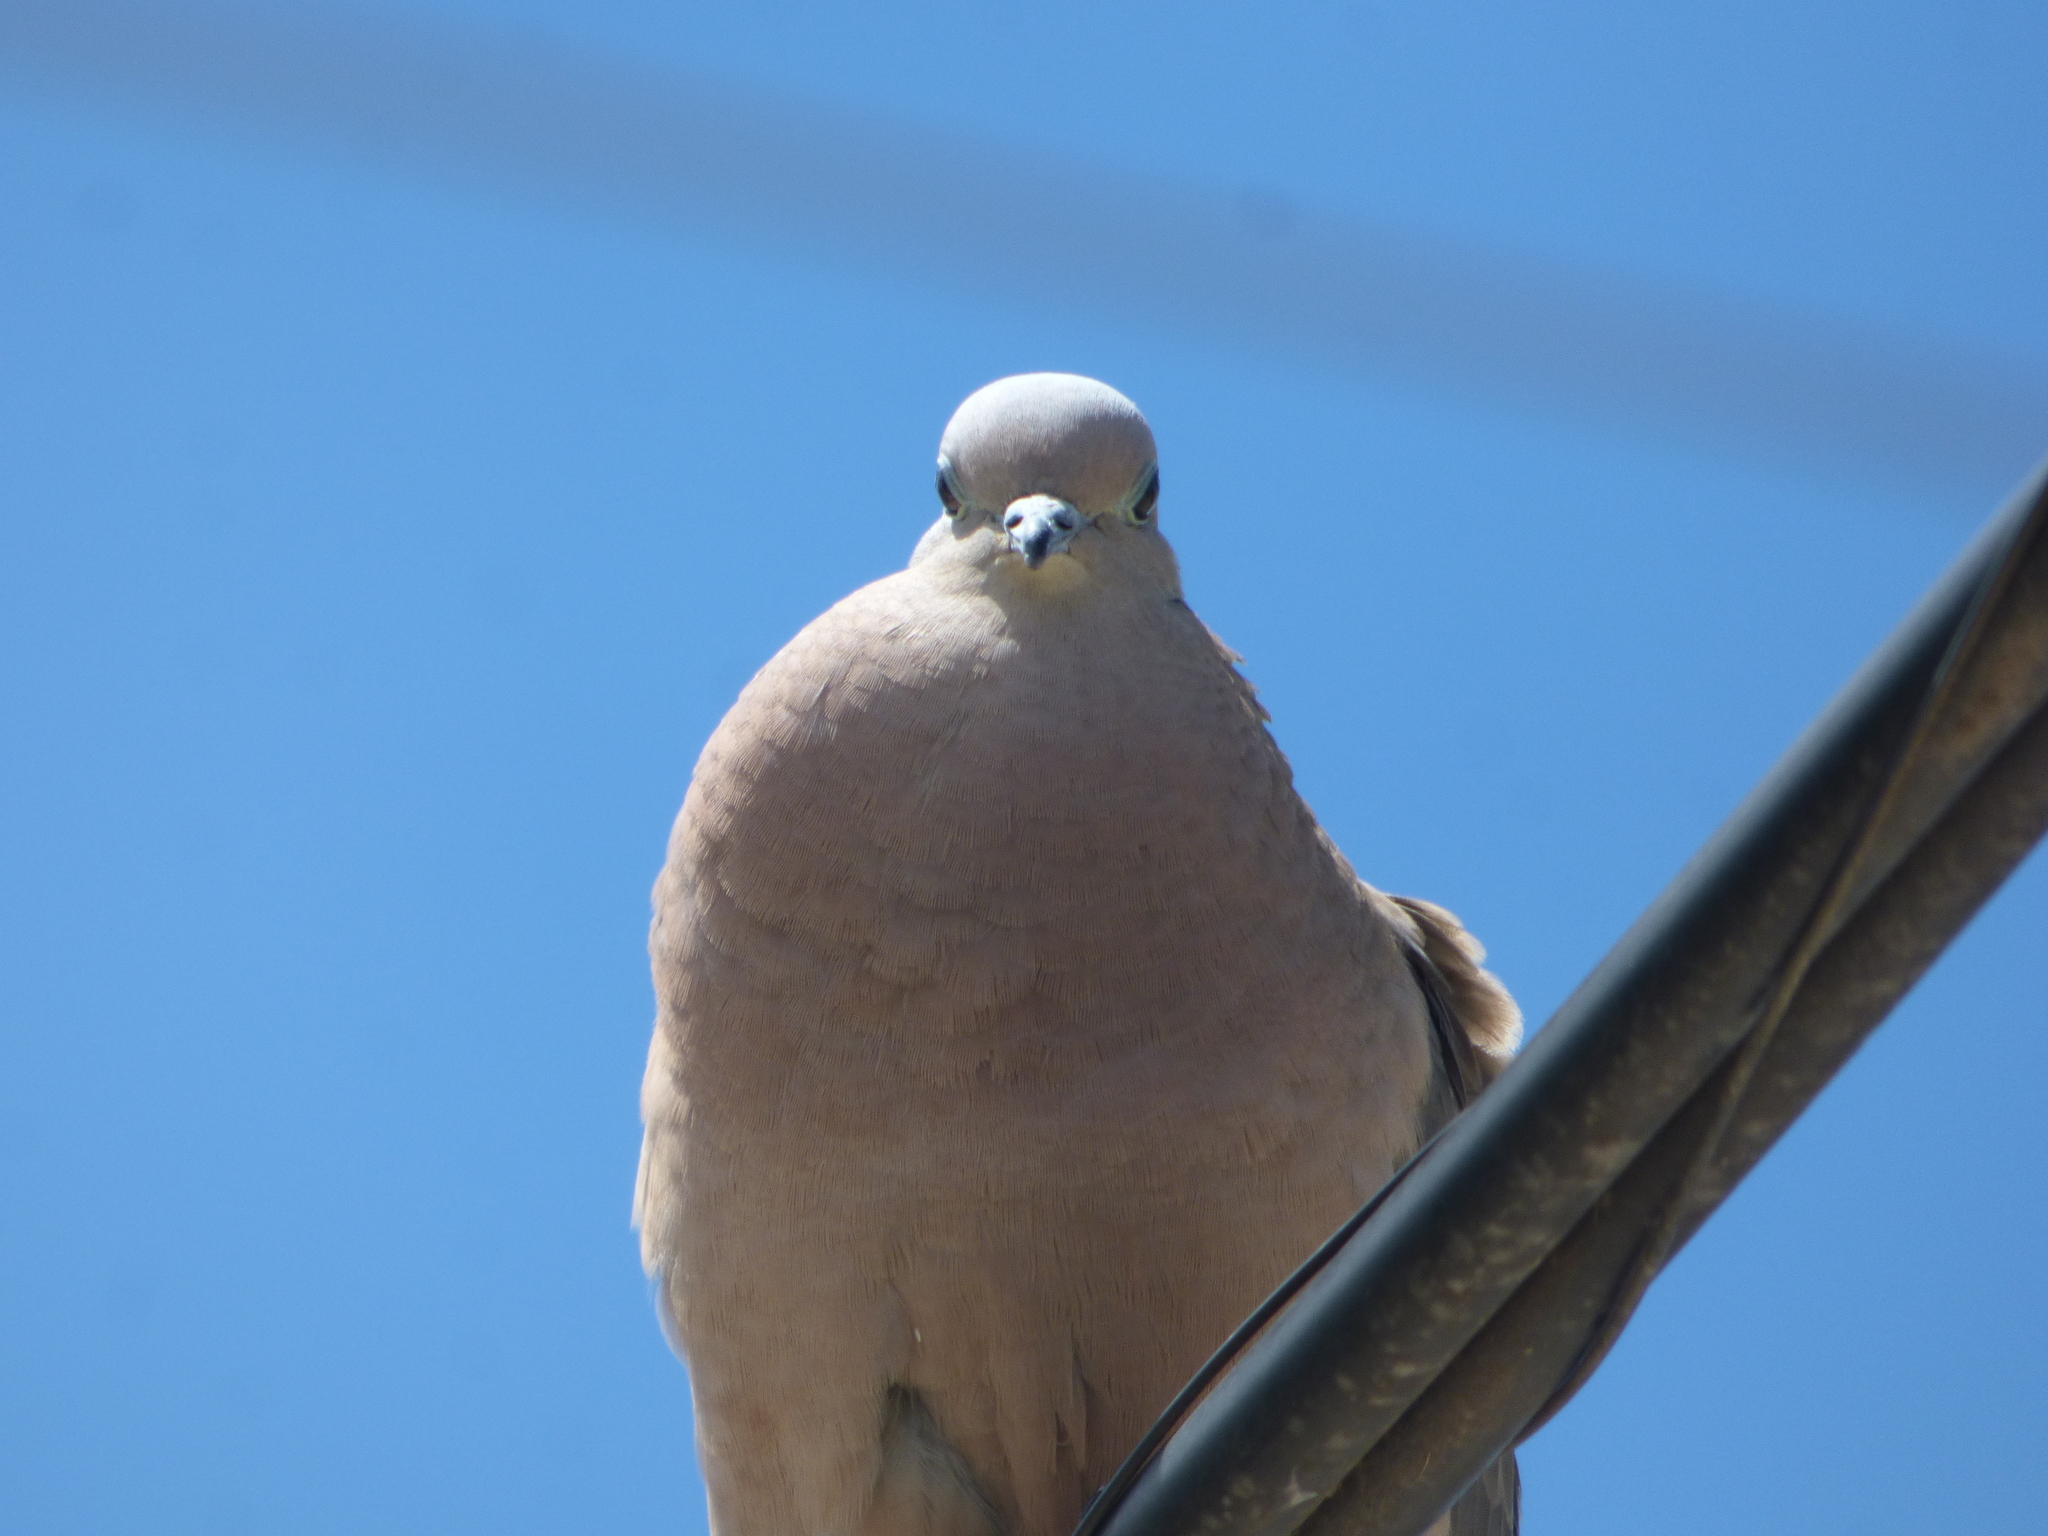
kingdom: Animalia
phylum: Chordata
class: Aves
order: Columbiformes
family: Columbidae
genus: Zenaida
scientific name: Zenaida auriculata
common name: Eared dove
